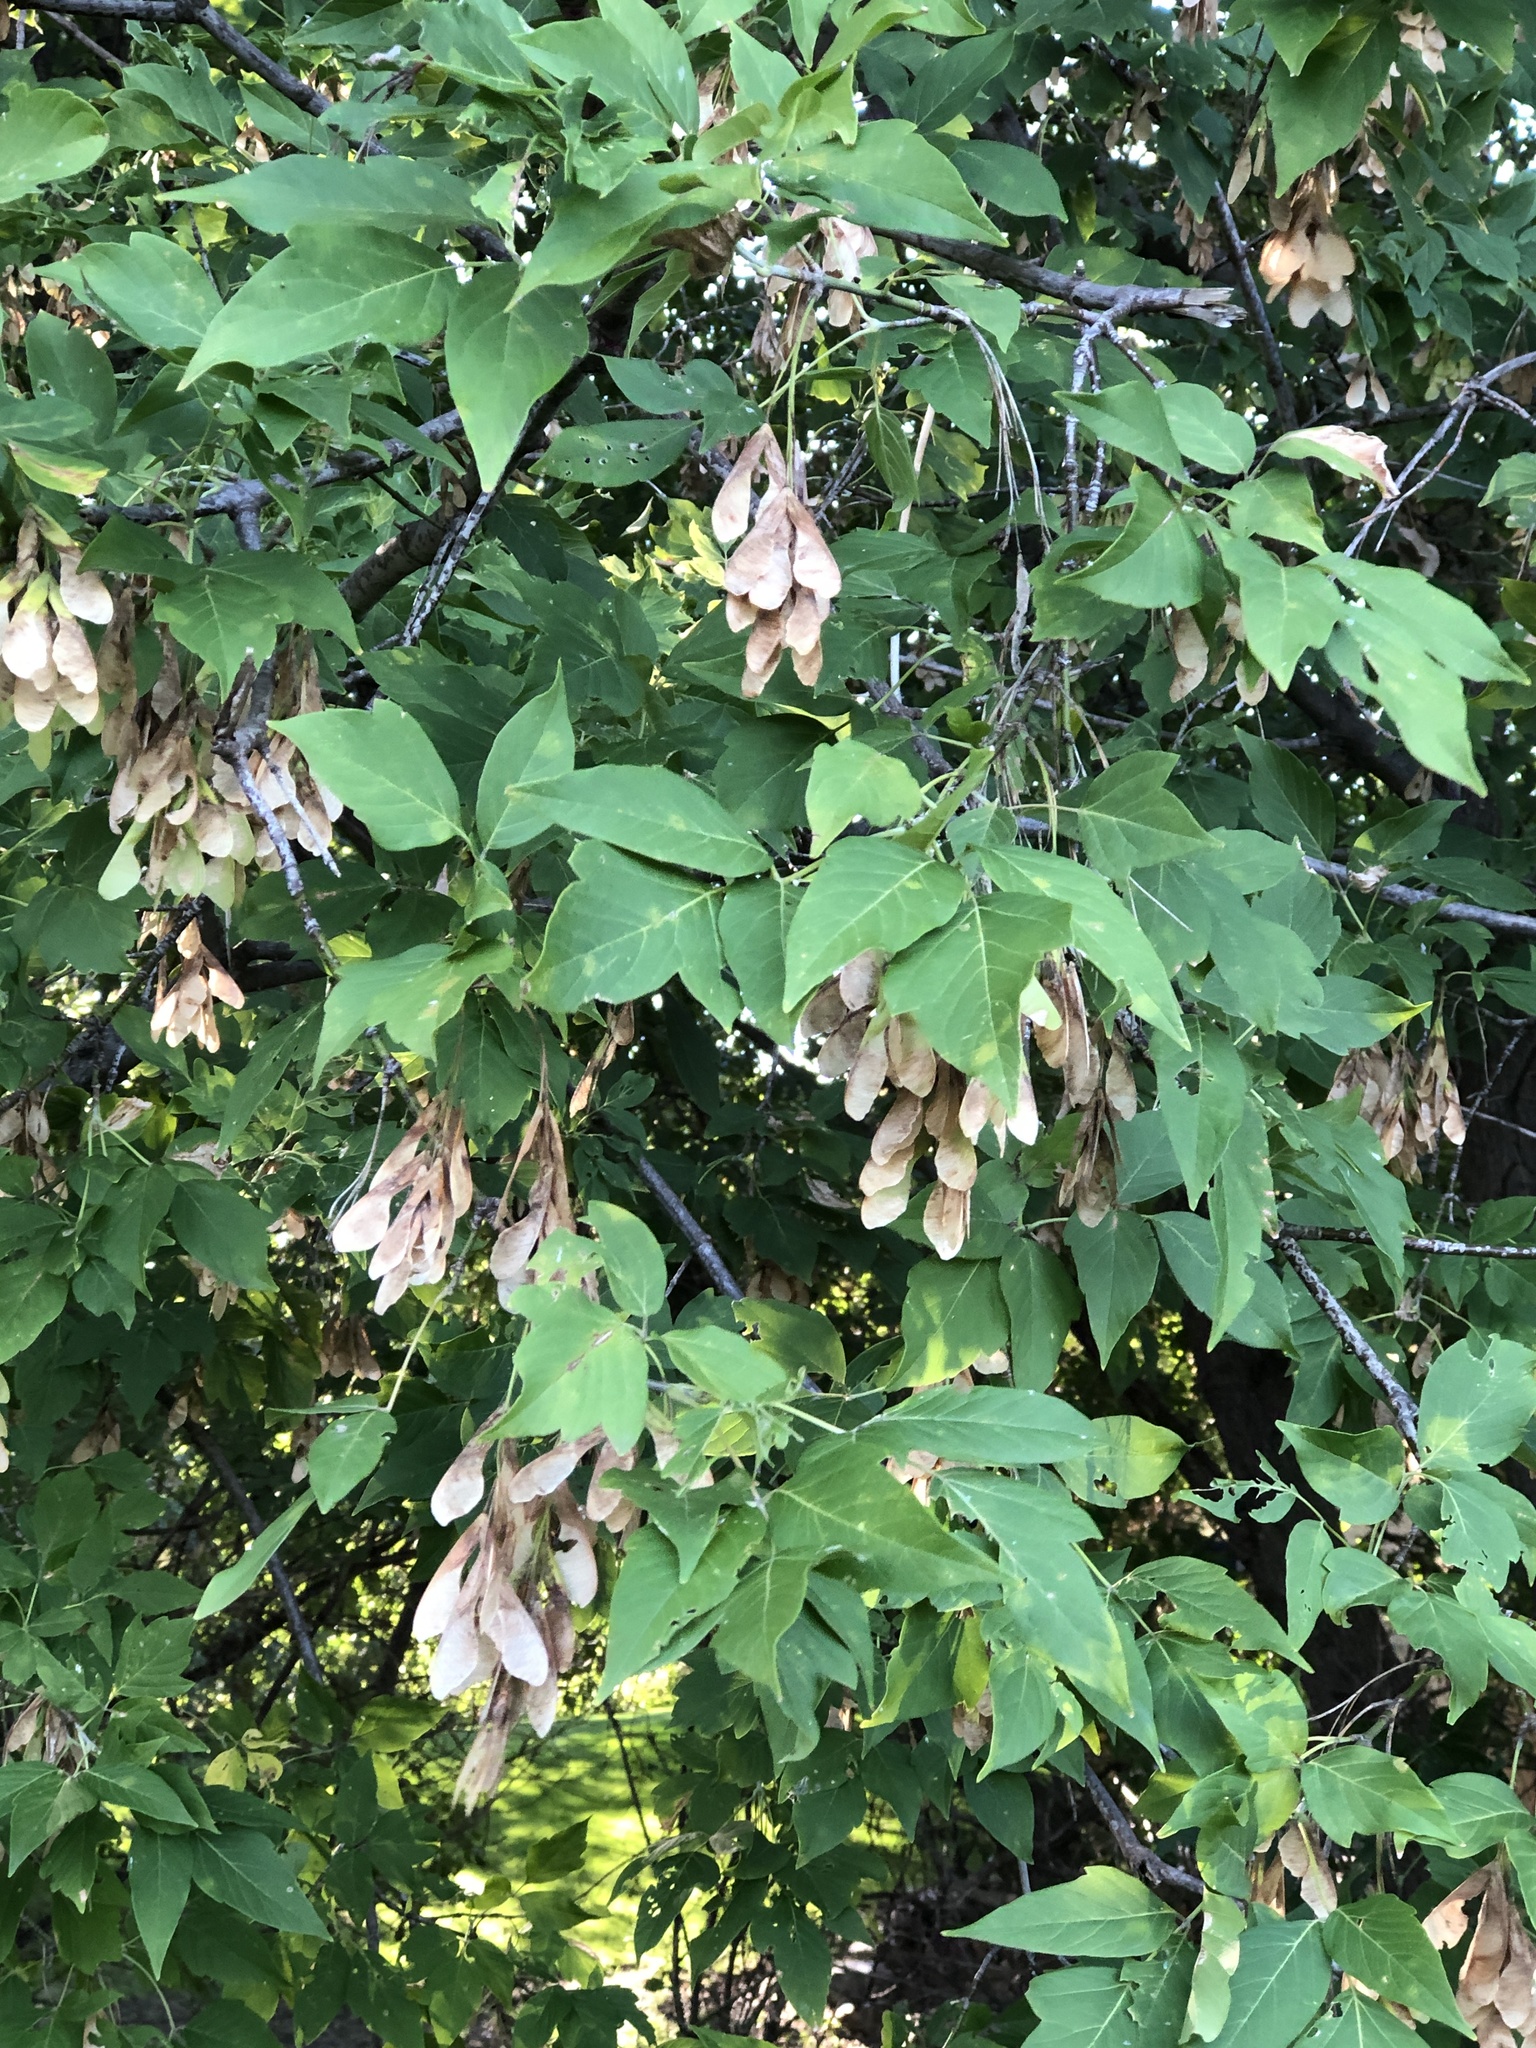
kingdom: Plantae
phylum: Tracheophyta
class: Magnoliopsida
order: Sapindales
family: Sapindaceae
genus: Acer
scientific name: Acer negundo
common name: Ashleaf maple
